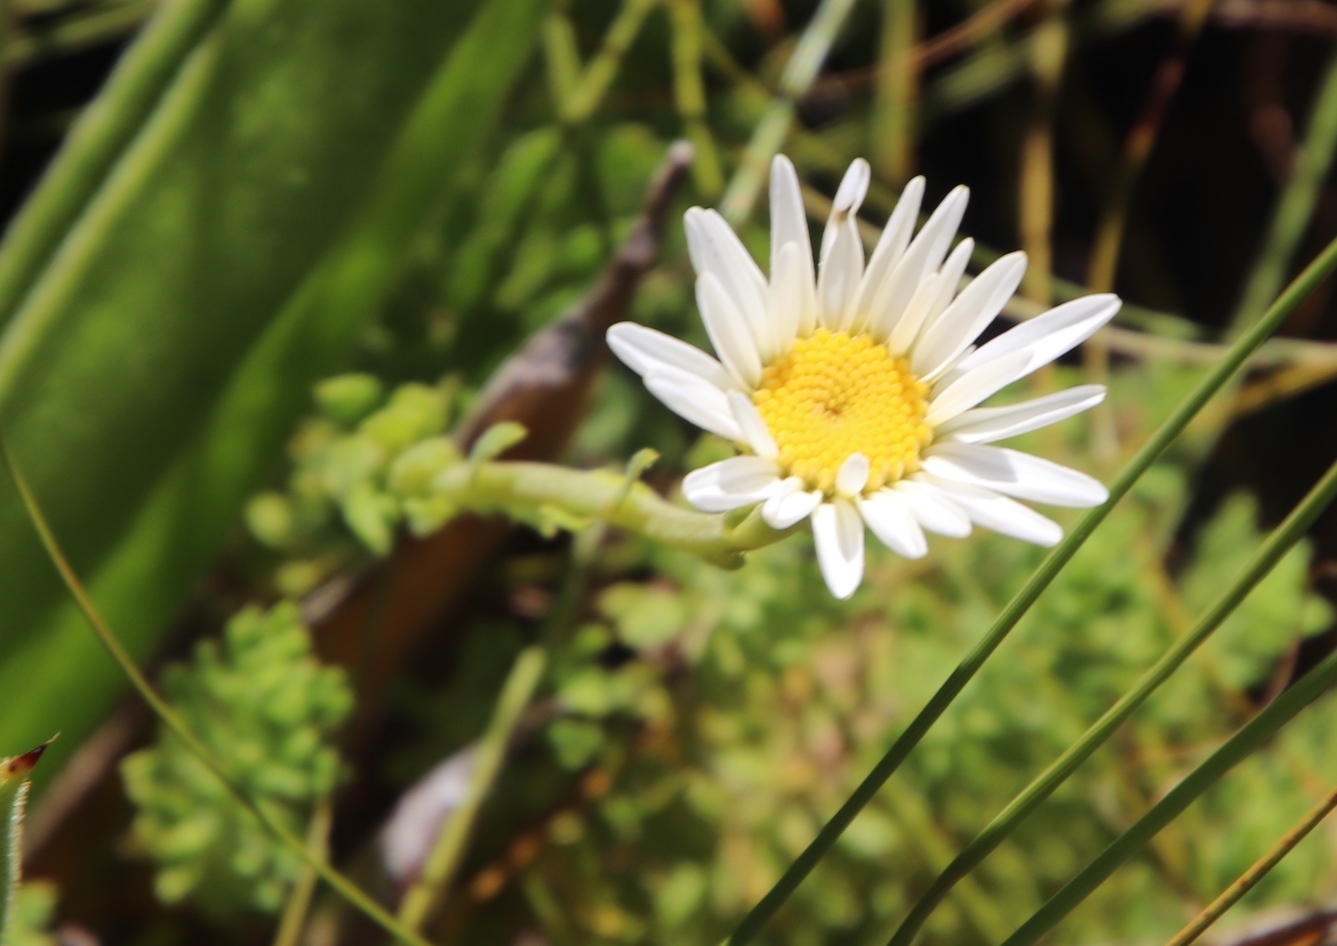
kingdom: Plantae
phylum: Tracheophyta
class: Magnoliopsida
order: Asterales
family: Asteraceae
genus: Osmitopsis
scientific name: Osmitopsis afra
